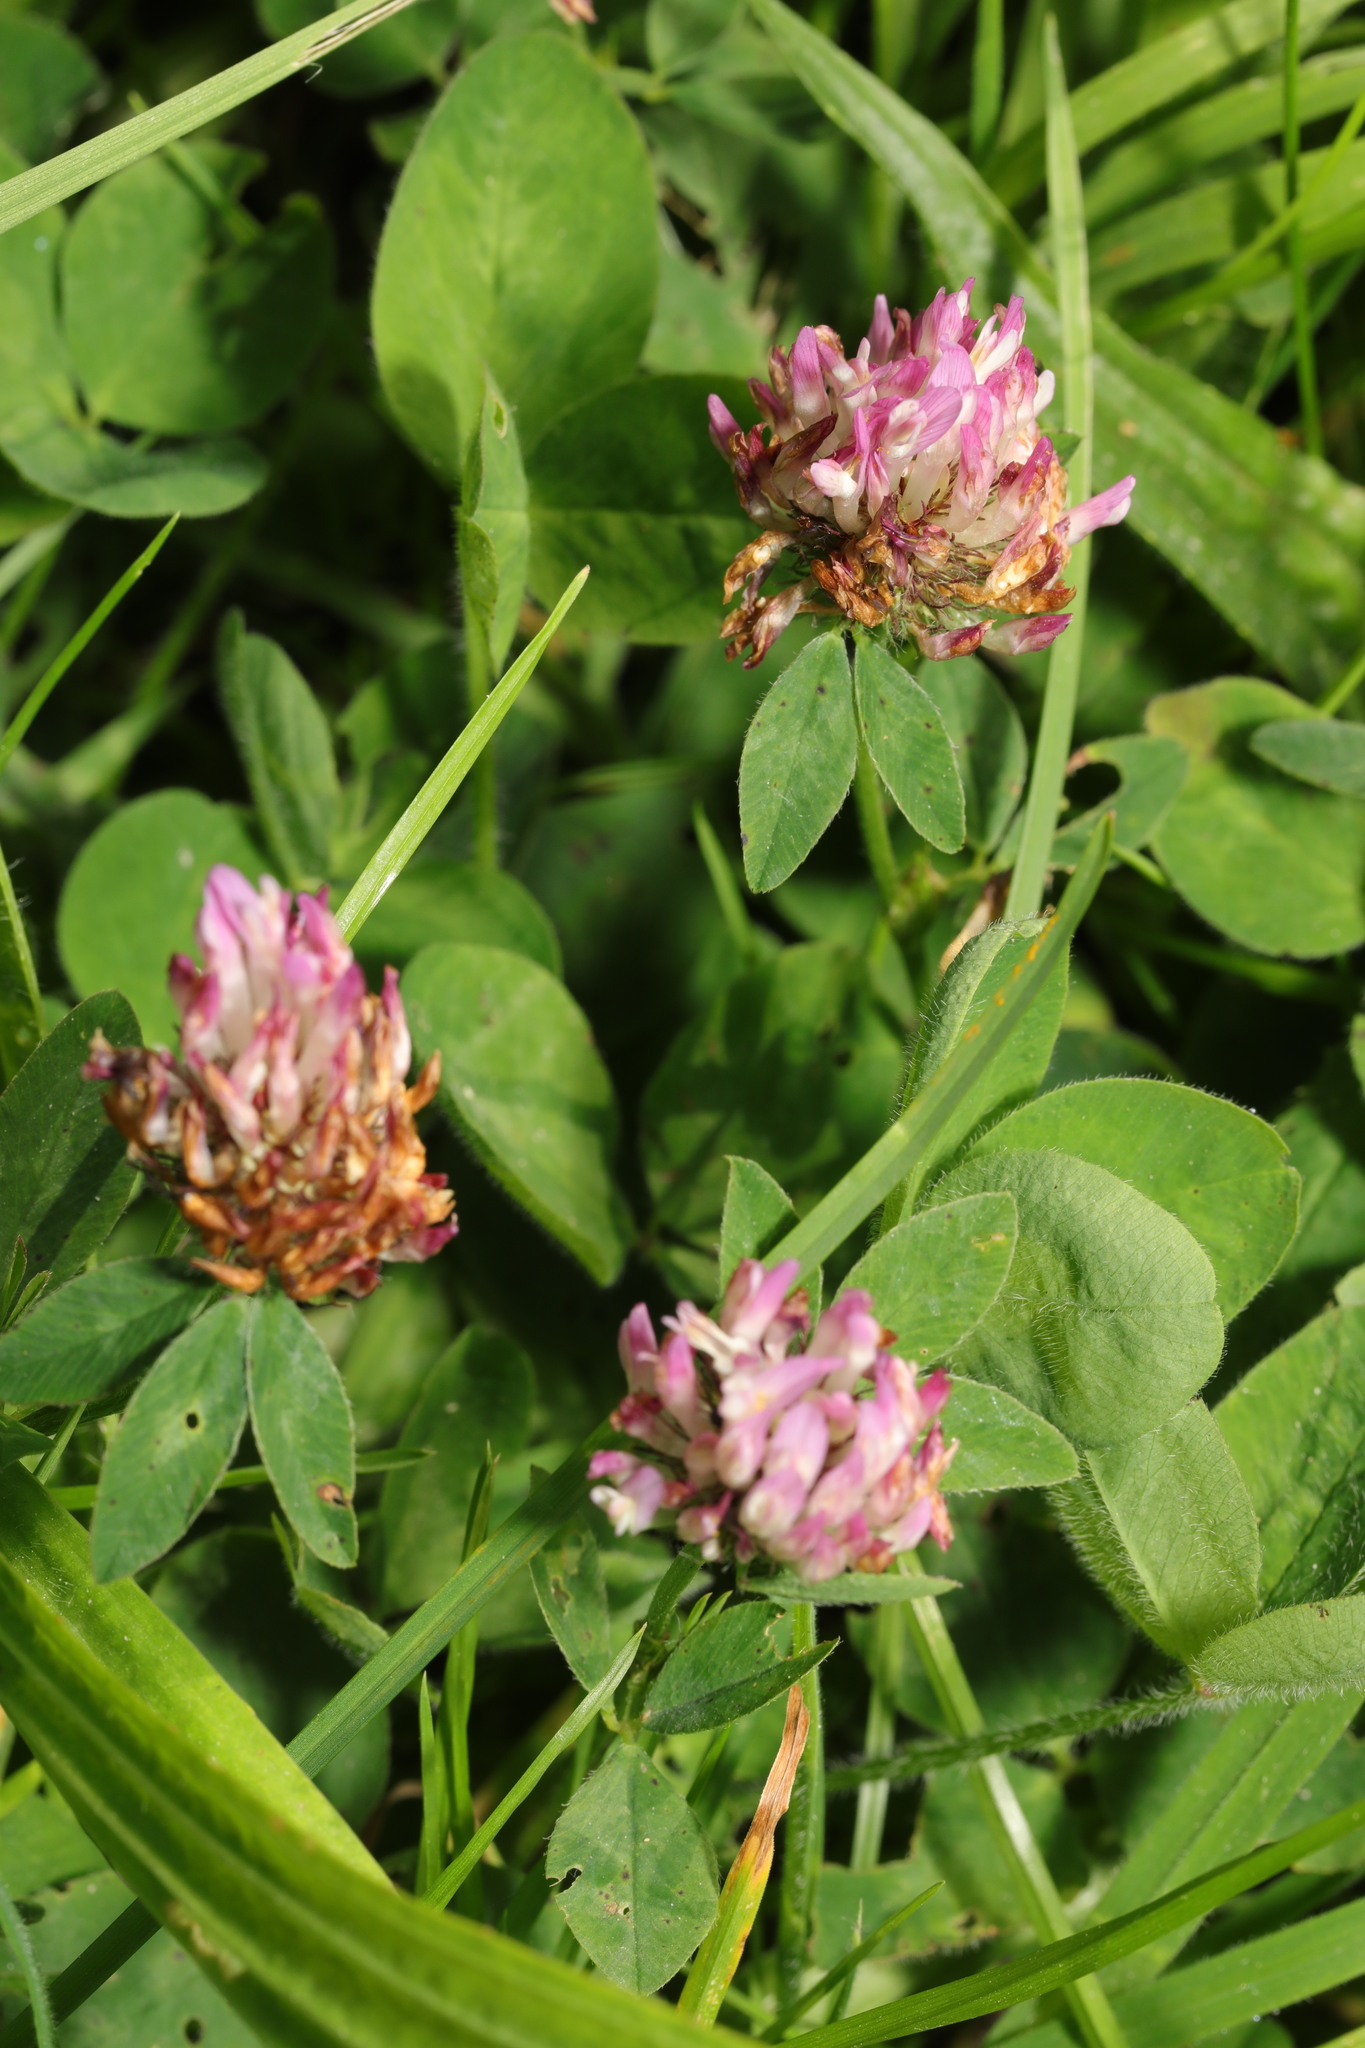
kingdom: Plantae
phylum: Tracheophyta
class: Magnoliopsida
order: Fabales
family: Fabaceae
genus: Trifolium
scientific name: Trifolium pratense
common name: Red clover
